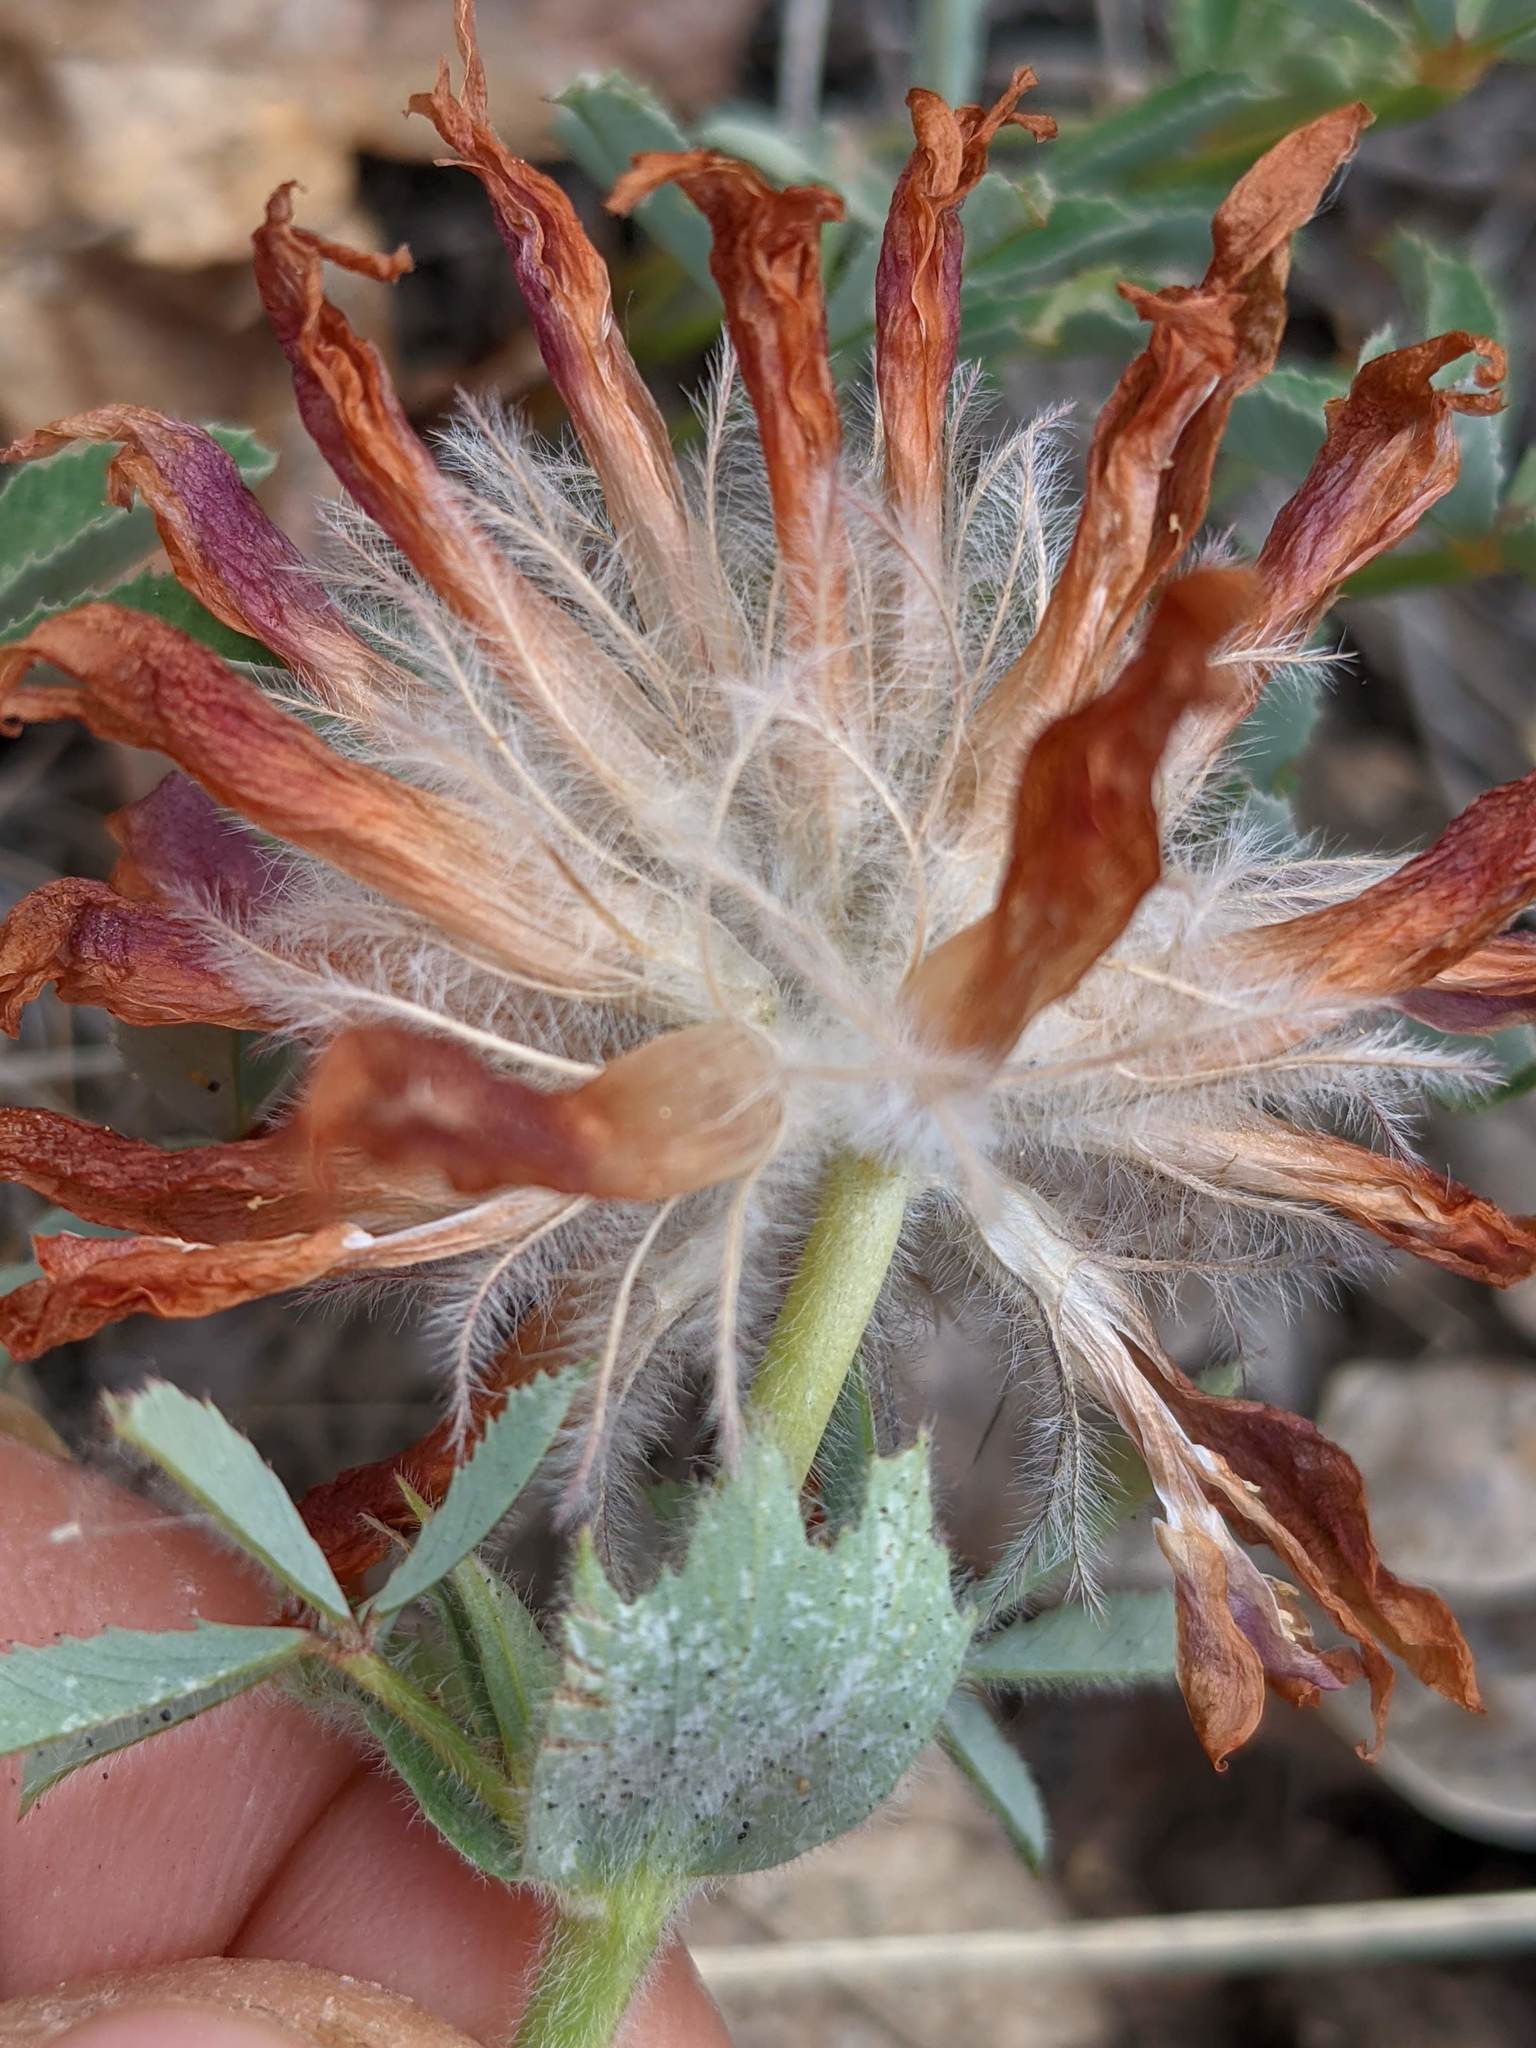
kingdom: Plantae
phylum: Tracheophyta
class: Magnoliopsida
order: Fabales
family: Fabaceae
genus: Trifolium
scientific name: Trifolium macrocephalum
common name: Large-head clover
